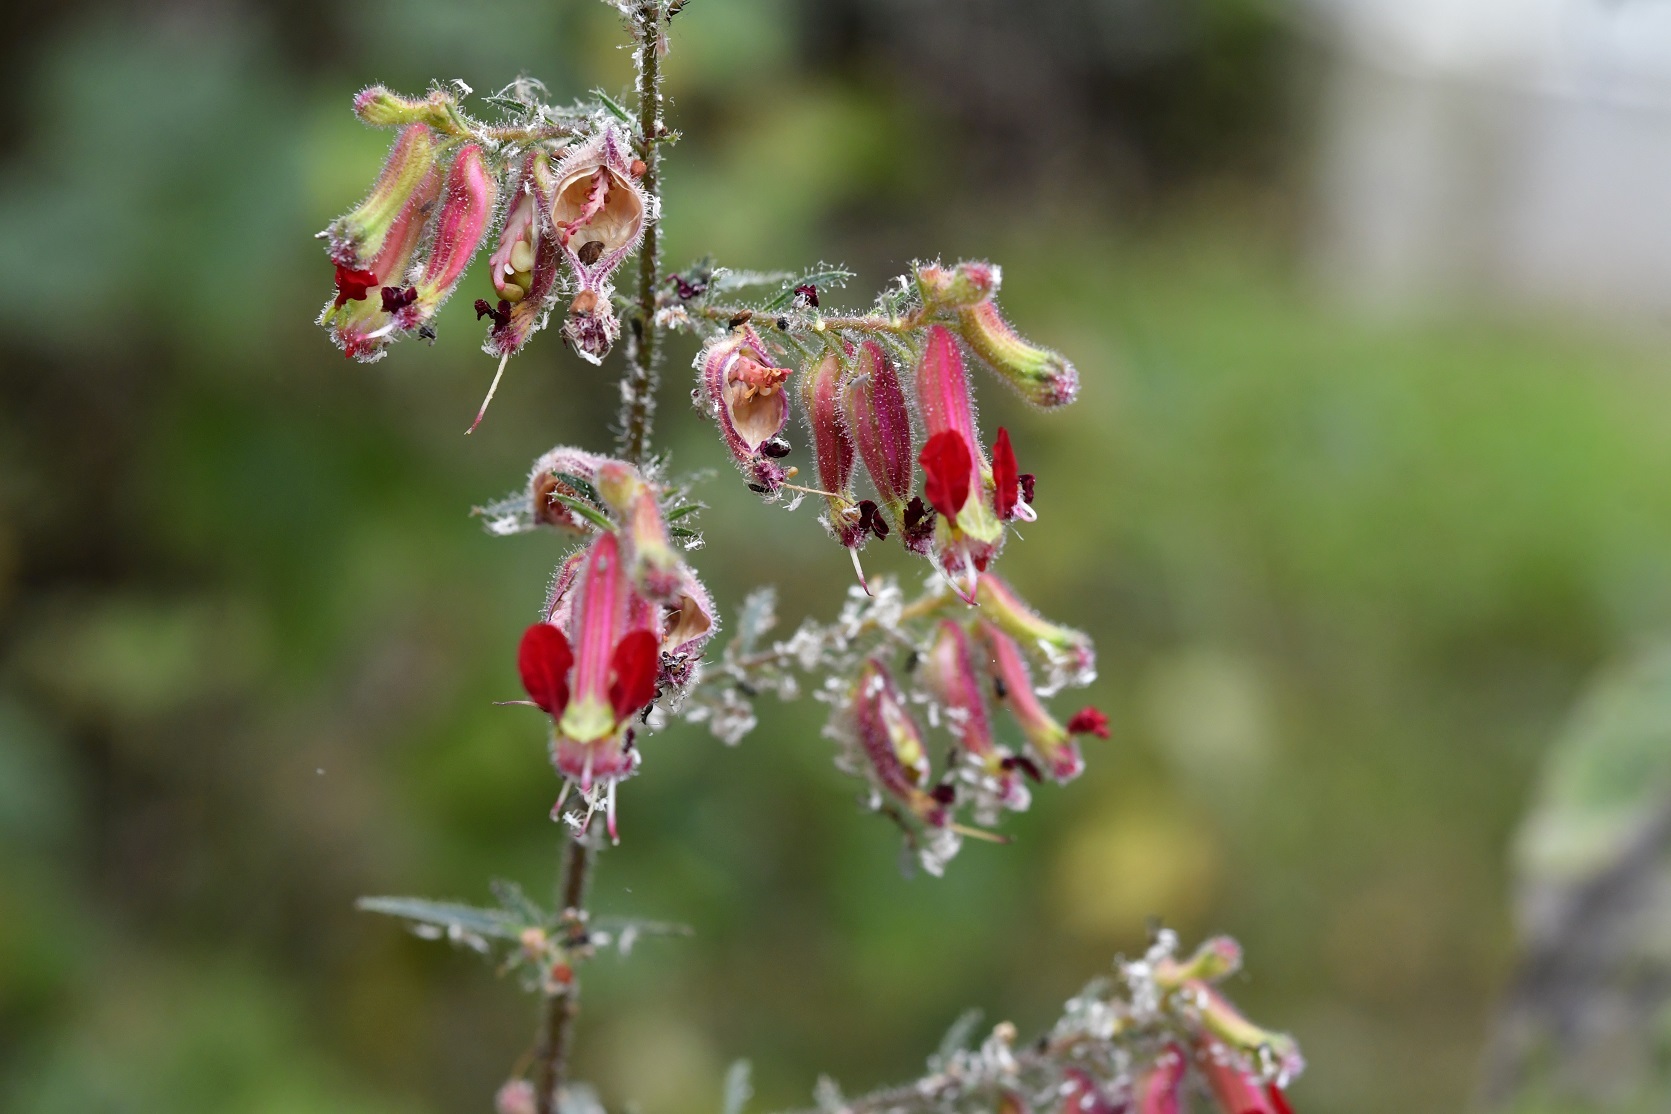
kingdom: Plantae
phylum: Tracheophyta
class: Magnoliopsida
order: Myrtales
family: Lythraceae
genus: Cuphea
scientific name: Cuphea hookeriana
